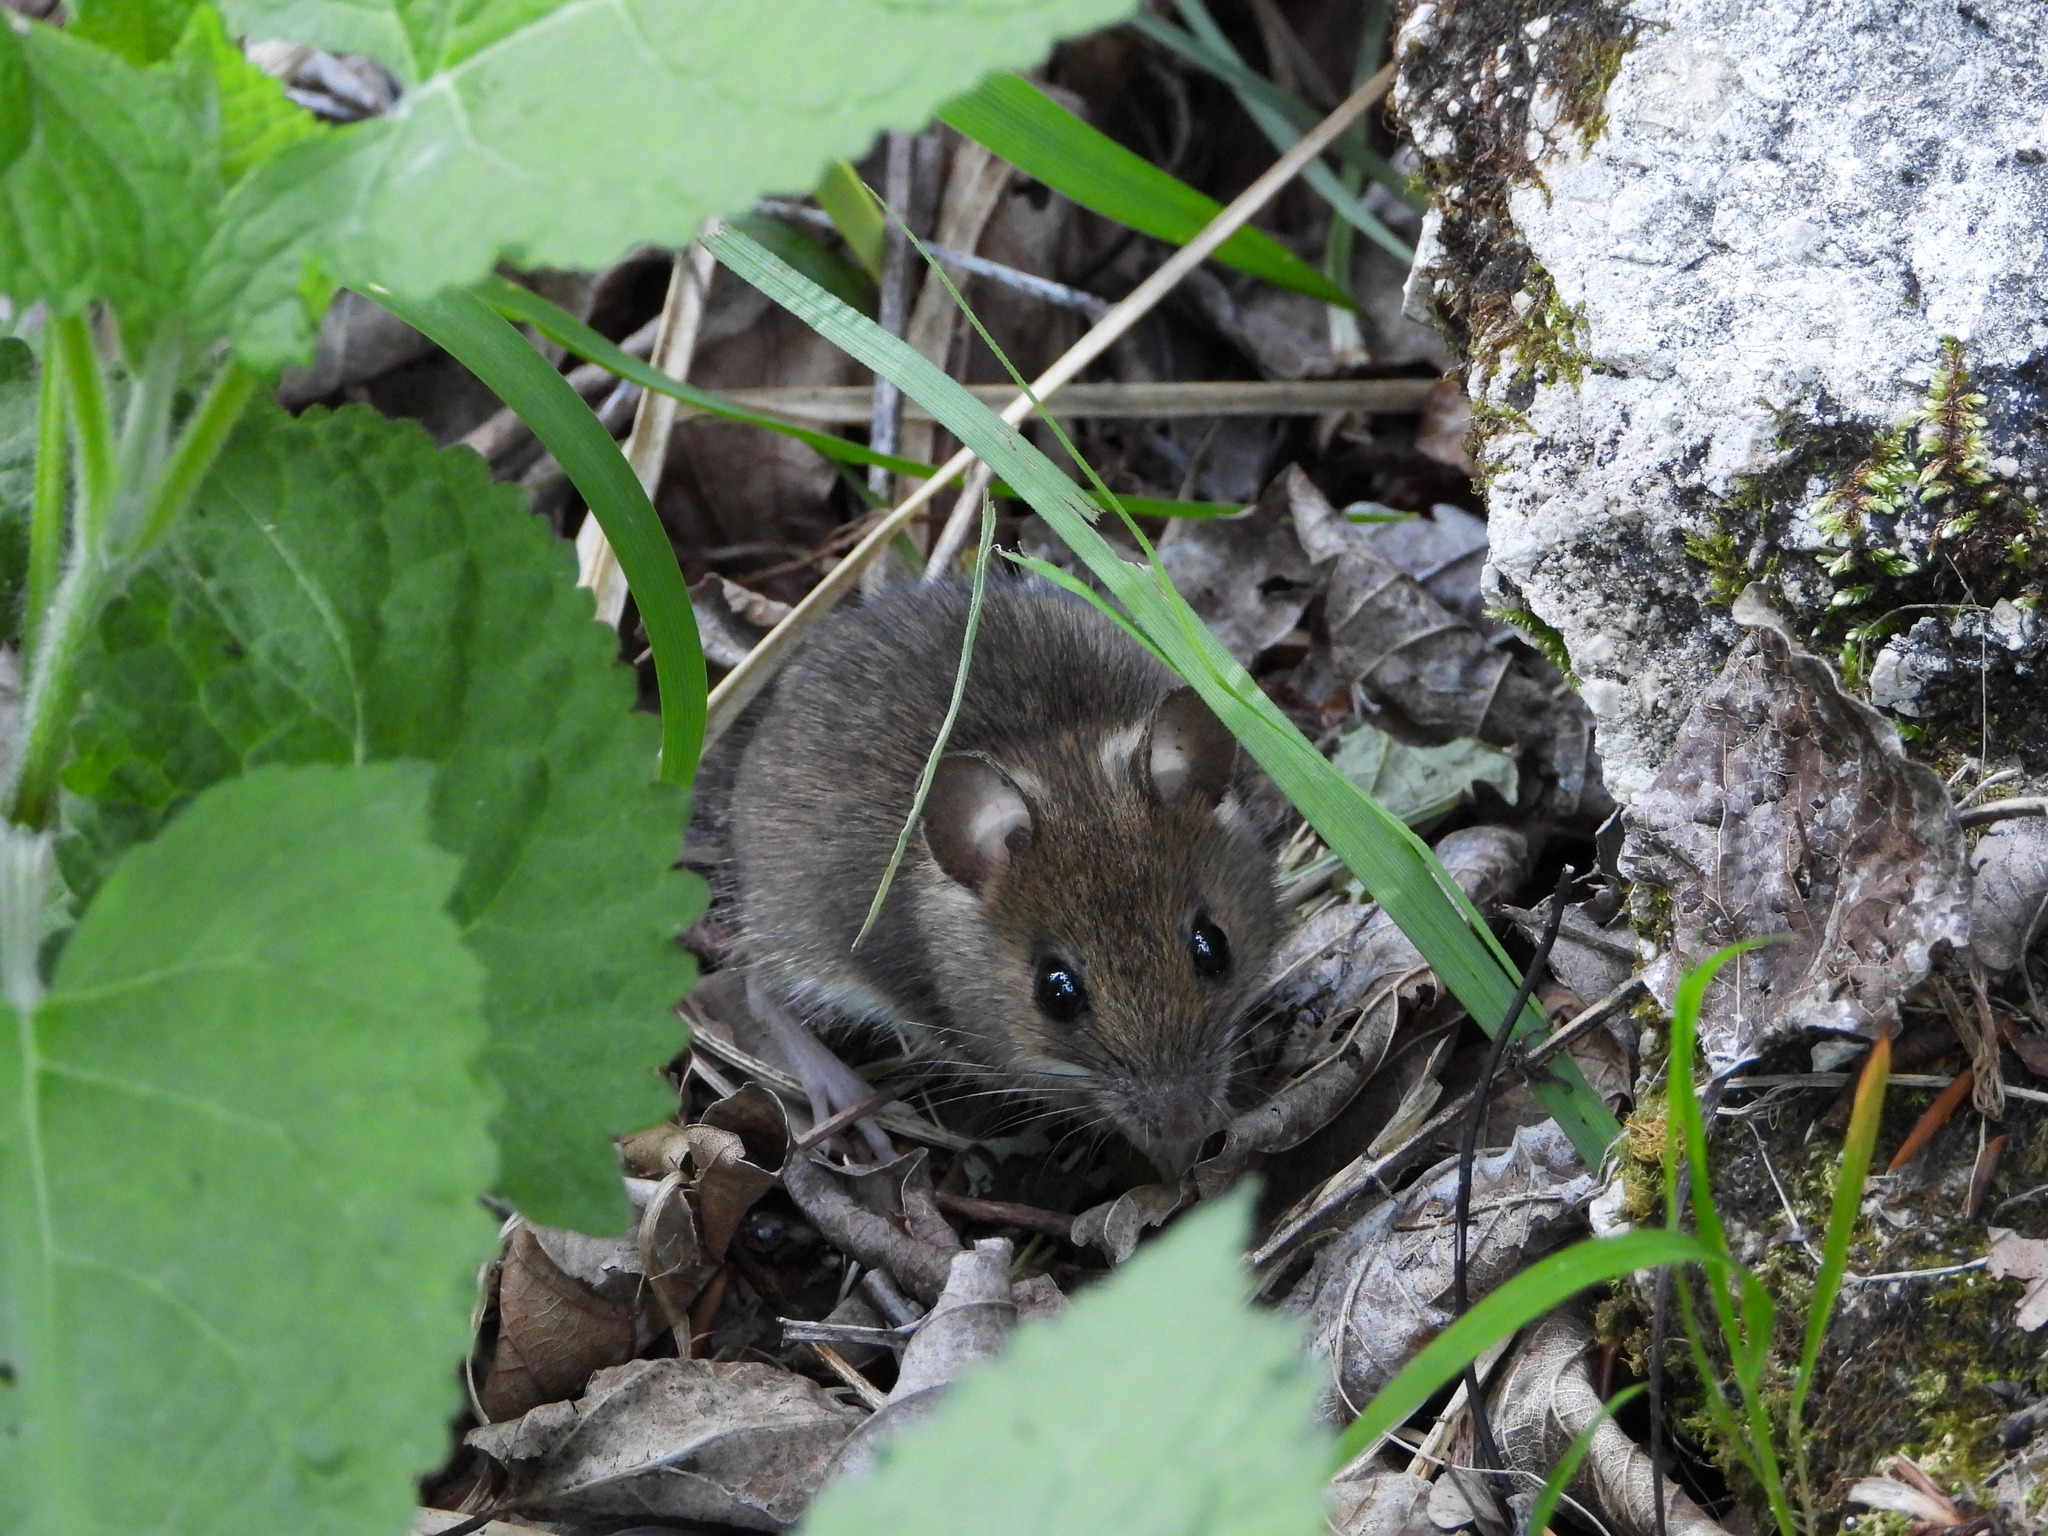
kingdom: Animalia
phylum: Chordata
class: Mammalia
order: Rodentia
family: Muridae
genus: Apodemus
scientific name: Apodemus sylvaticus
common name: Wood mouse
